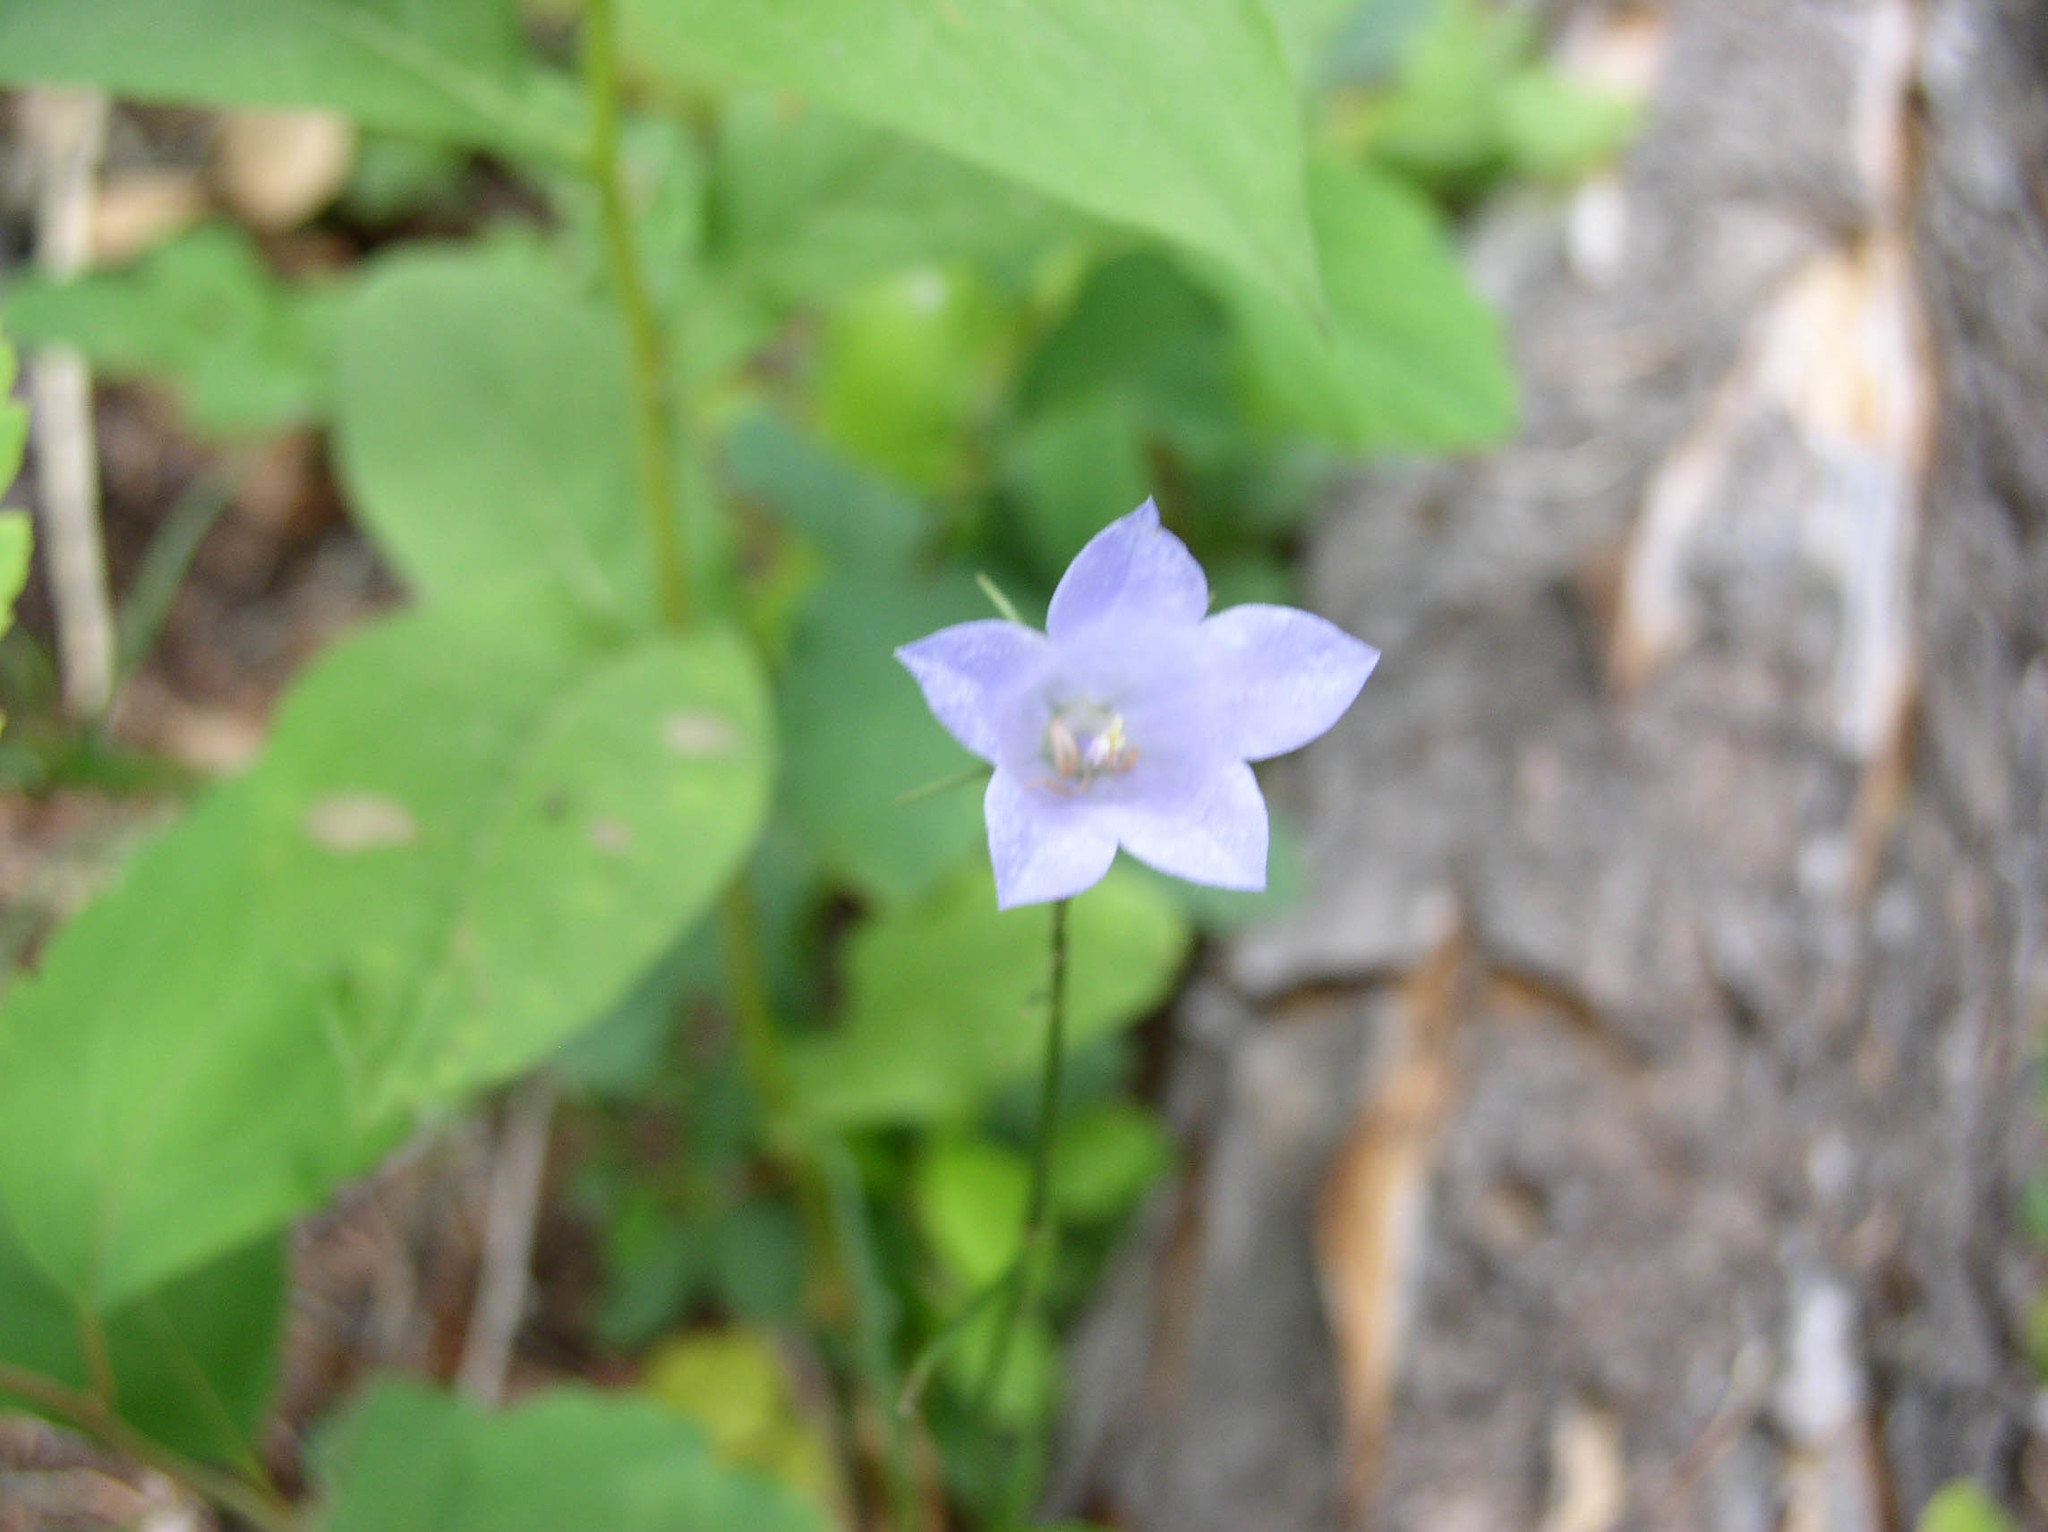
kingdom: Plantae
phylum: Tracheophyta
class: Magnoliopsida
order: Asterales
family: Campanulaceae
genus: Campanula
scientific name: Campanula petiolata
